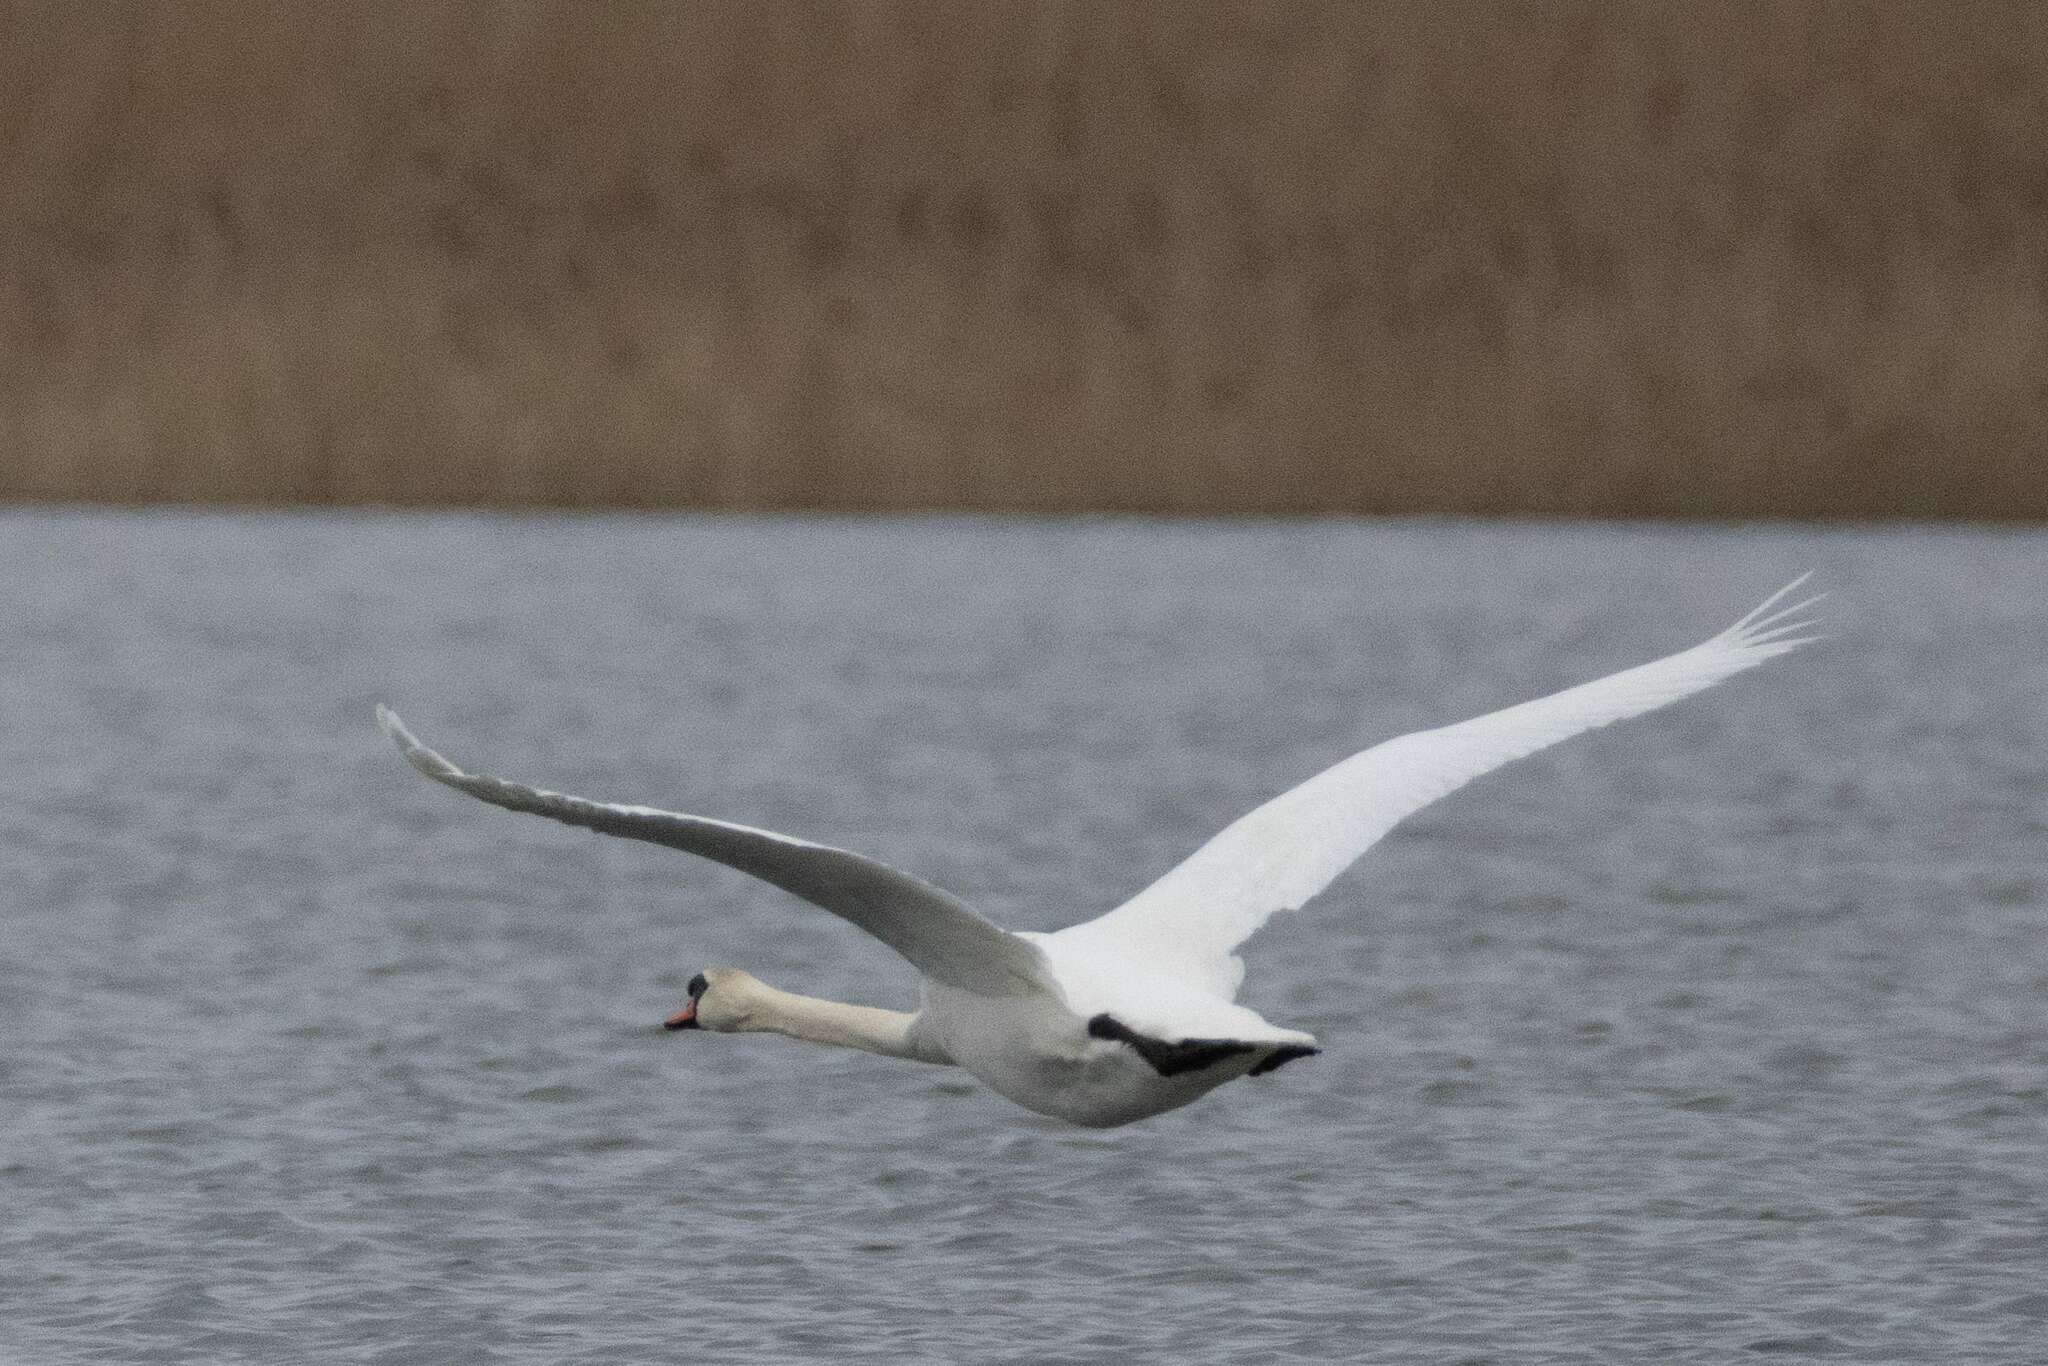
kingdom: Animalia
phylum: Chordata
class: Aves
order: Anseriformes
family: Anatidae
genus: Cygnus
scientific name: Cygnus olor
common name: Mute swan
